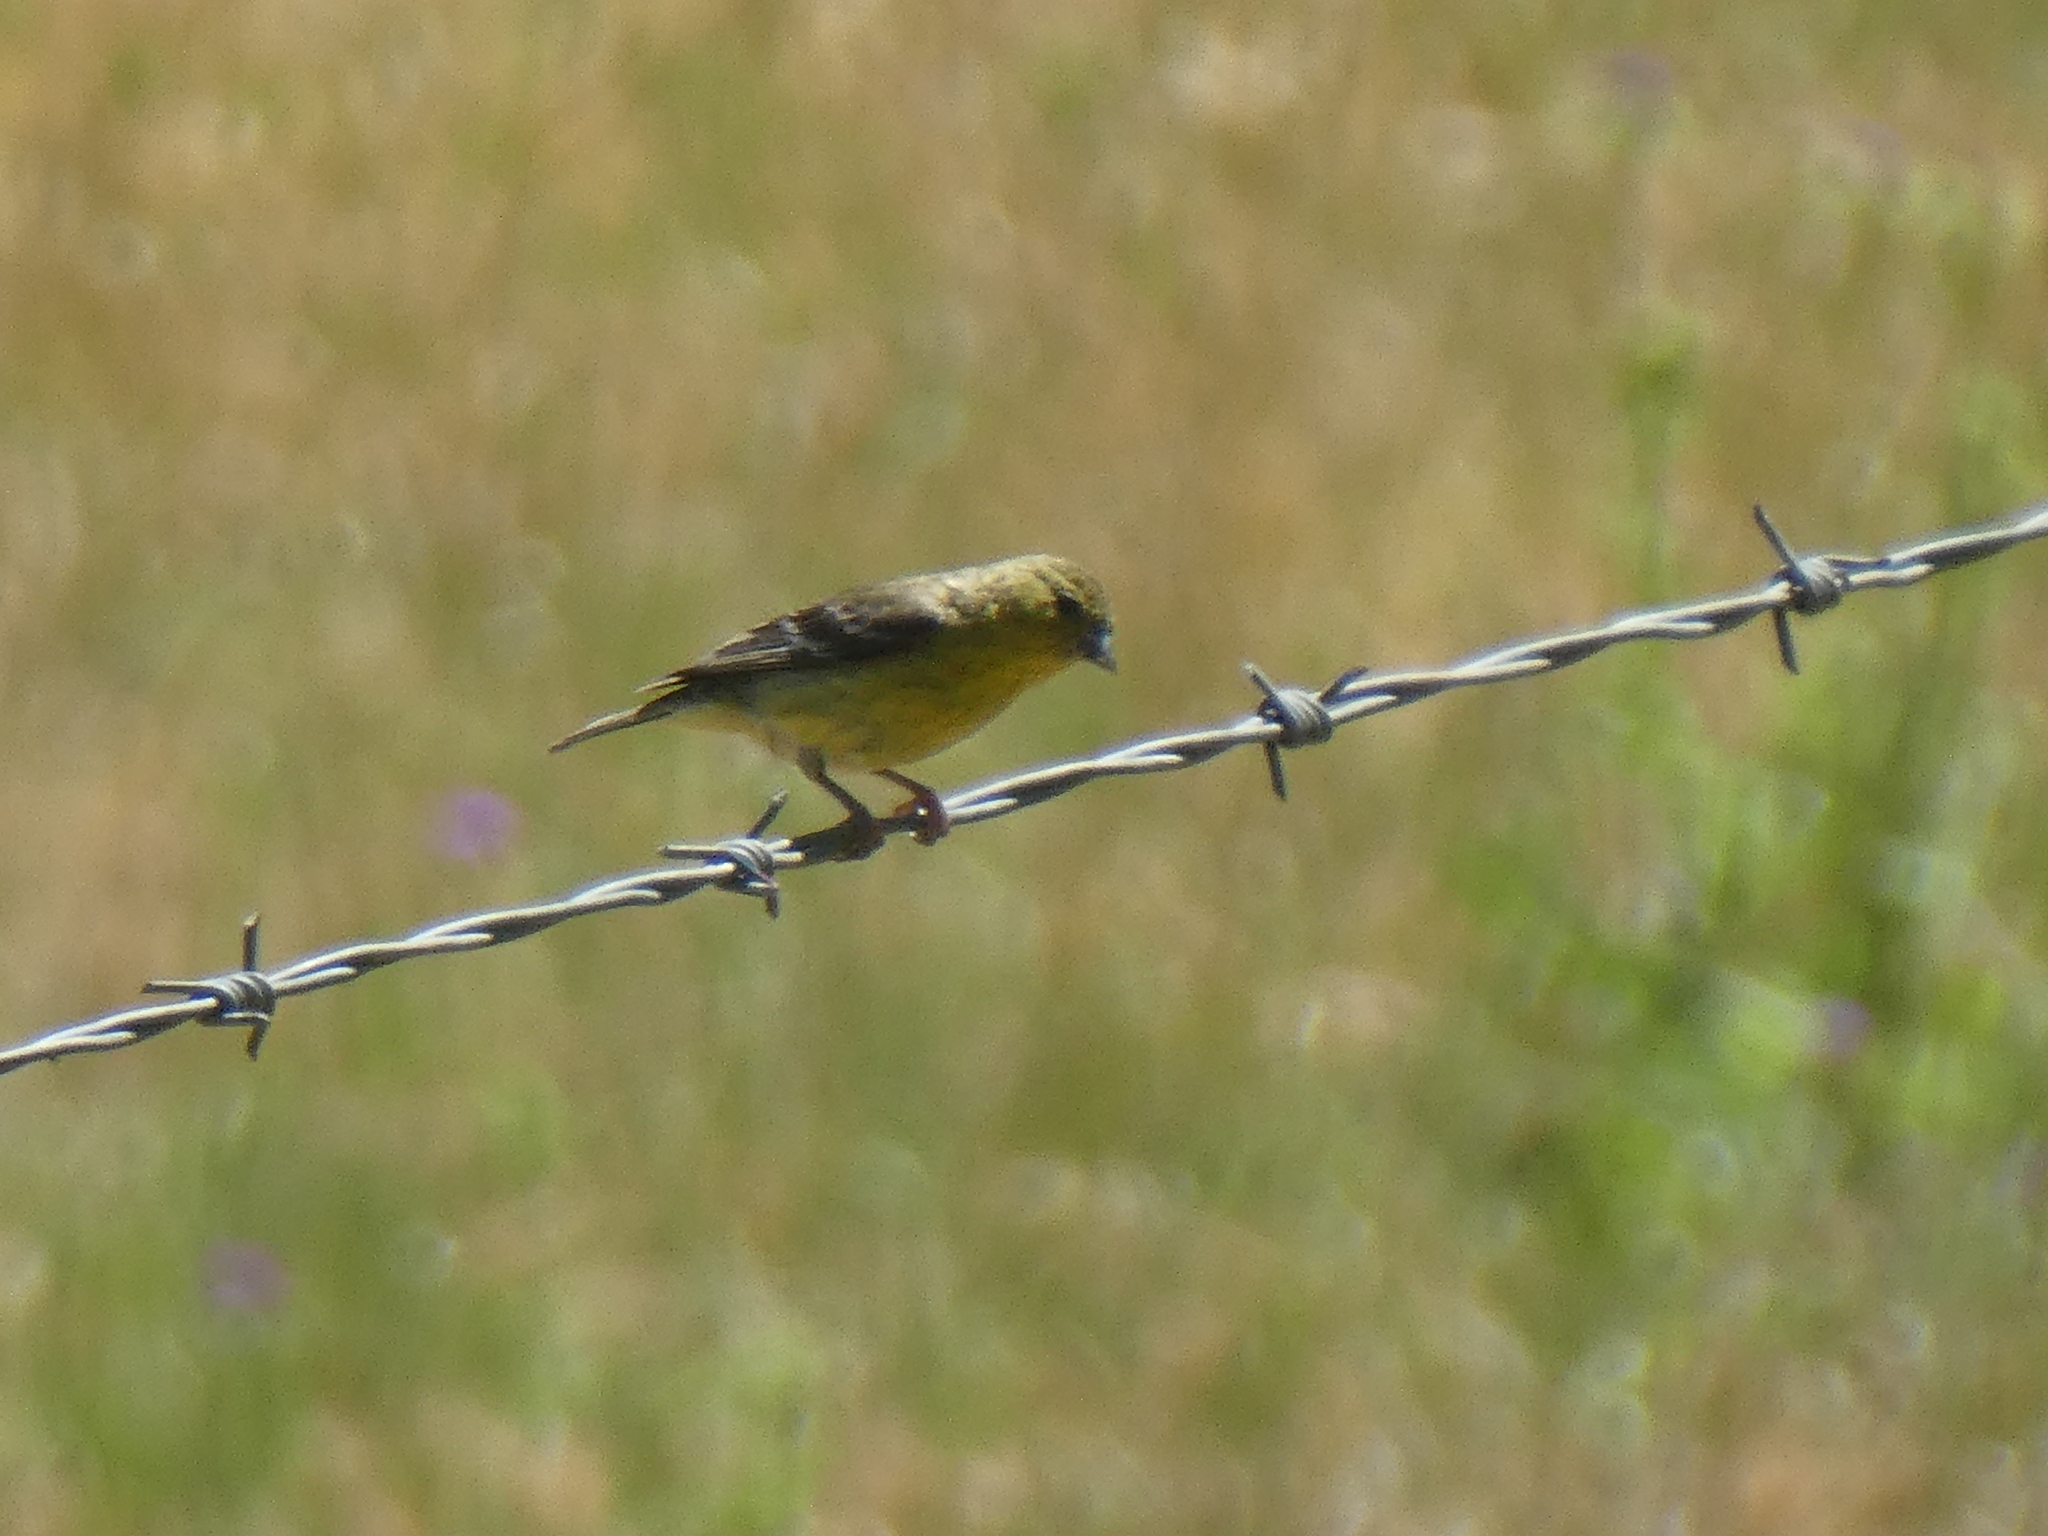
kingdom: Animalia
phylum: Chordata
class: Aves
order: Passeriformes
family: Fringillidae
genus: Spinus
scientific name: Spinus psaltria
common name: Lesser goldfinch
